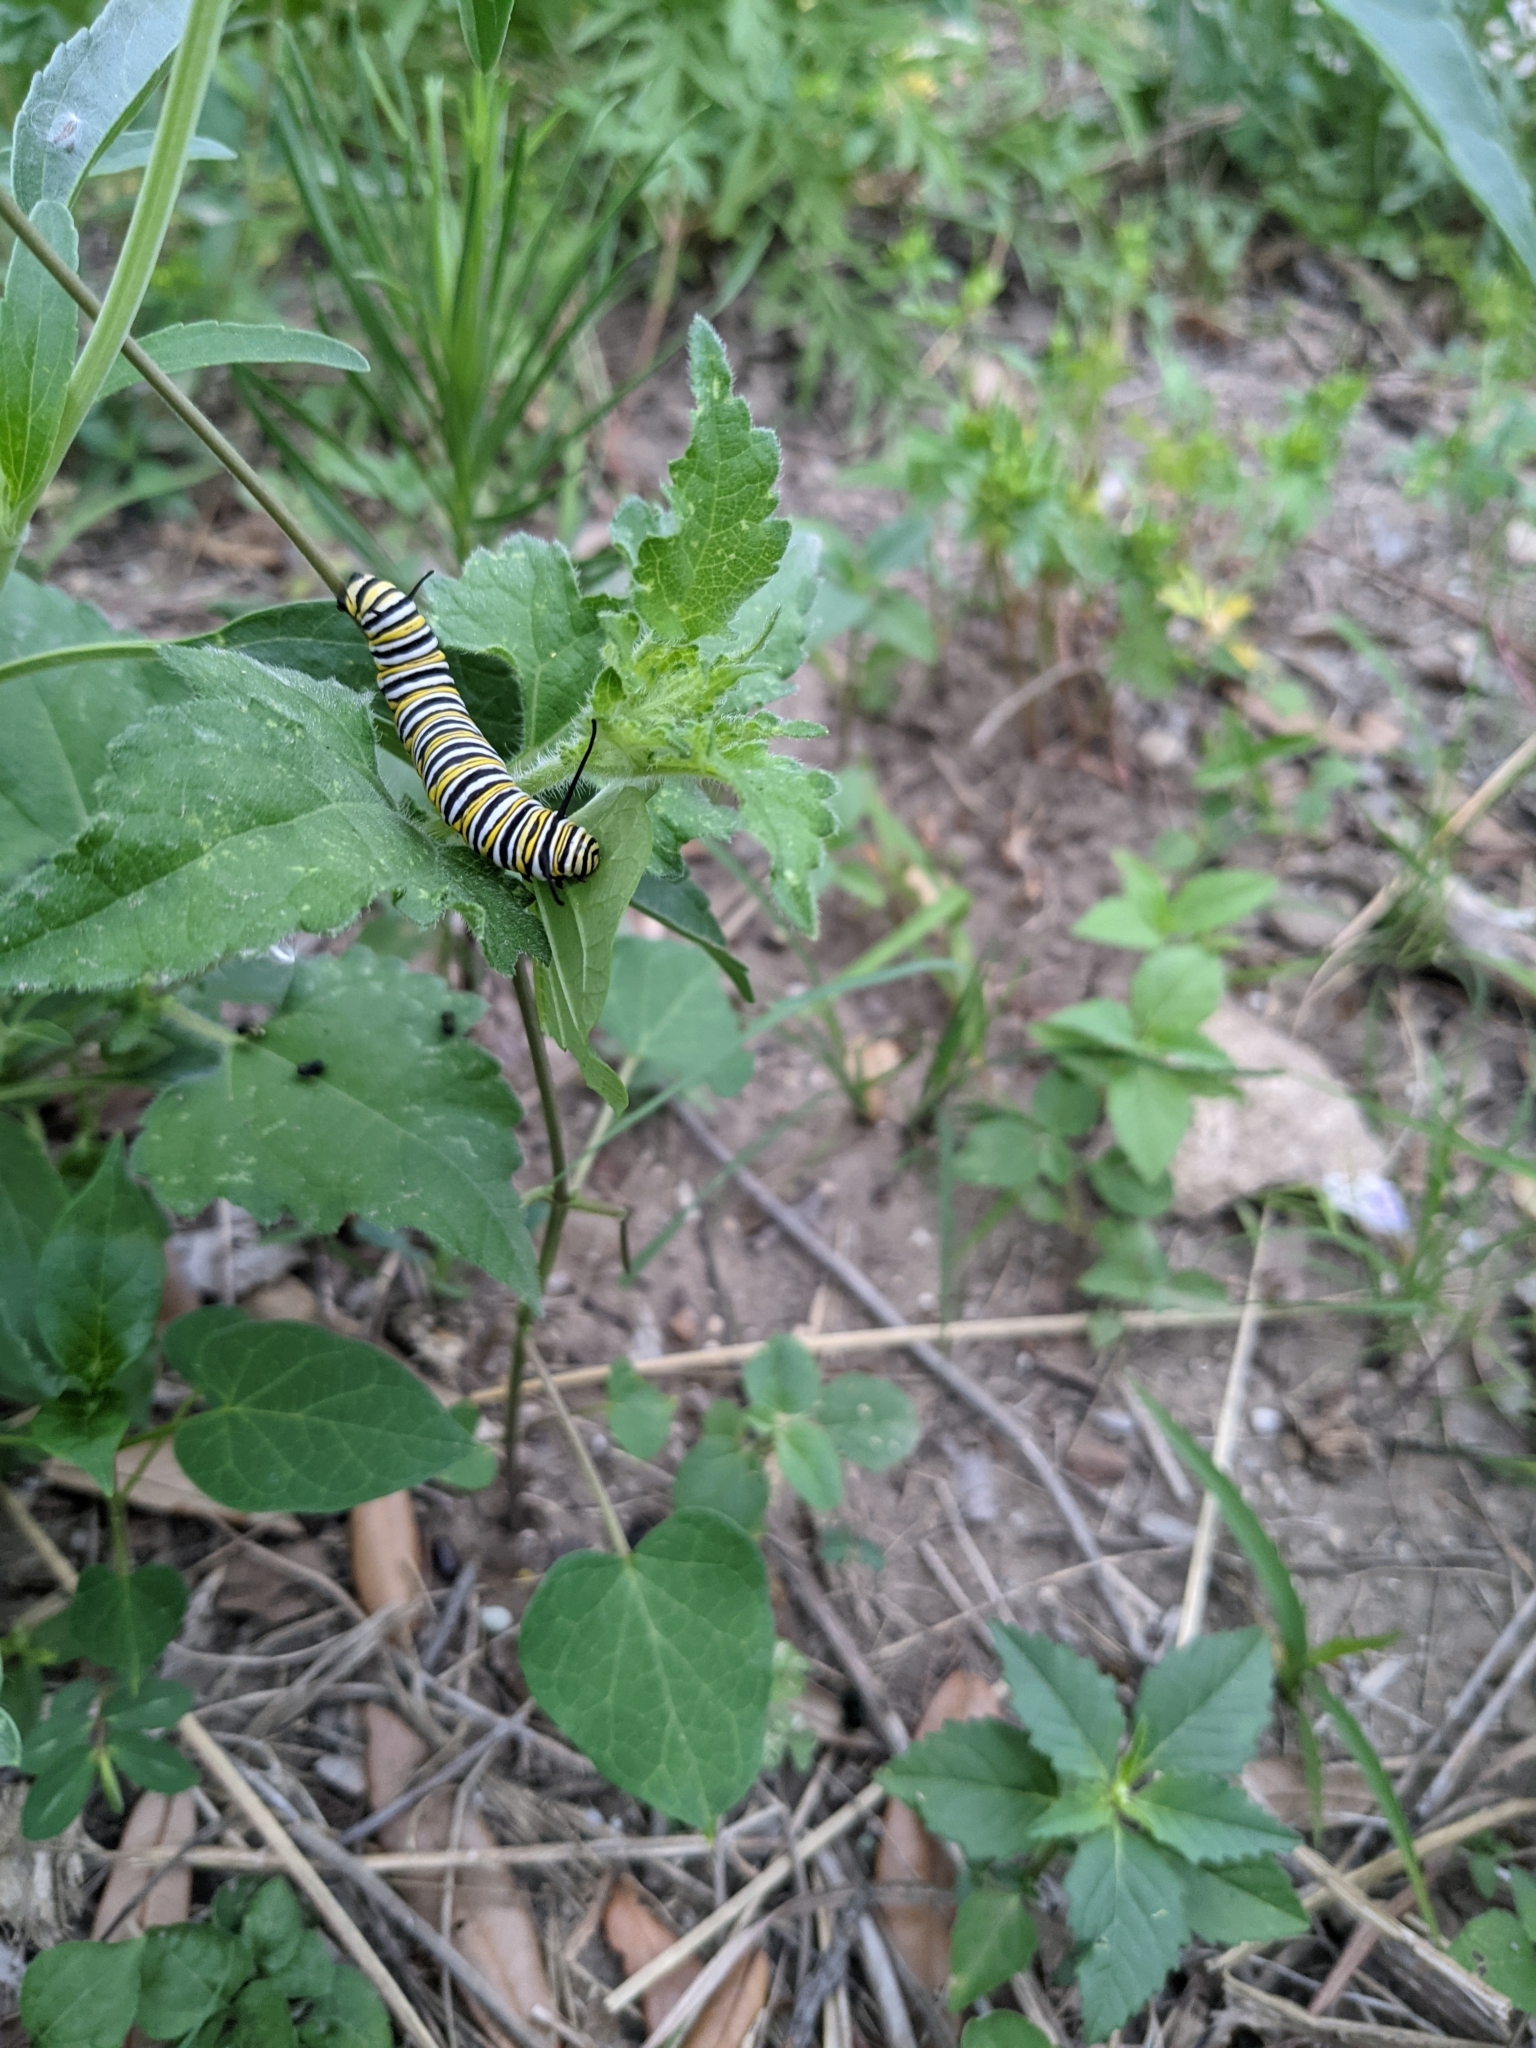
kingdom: Animalia
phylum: Arthropoda
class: Insecta
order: Lepidoptera
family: Nymphalidae
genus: Danaus
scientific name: Danaus plexippus
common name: Monarch
